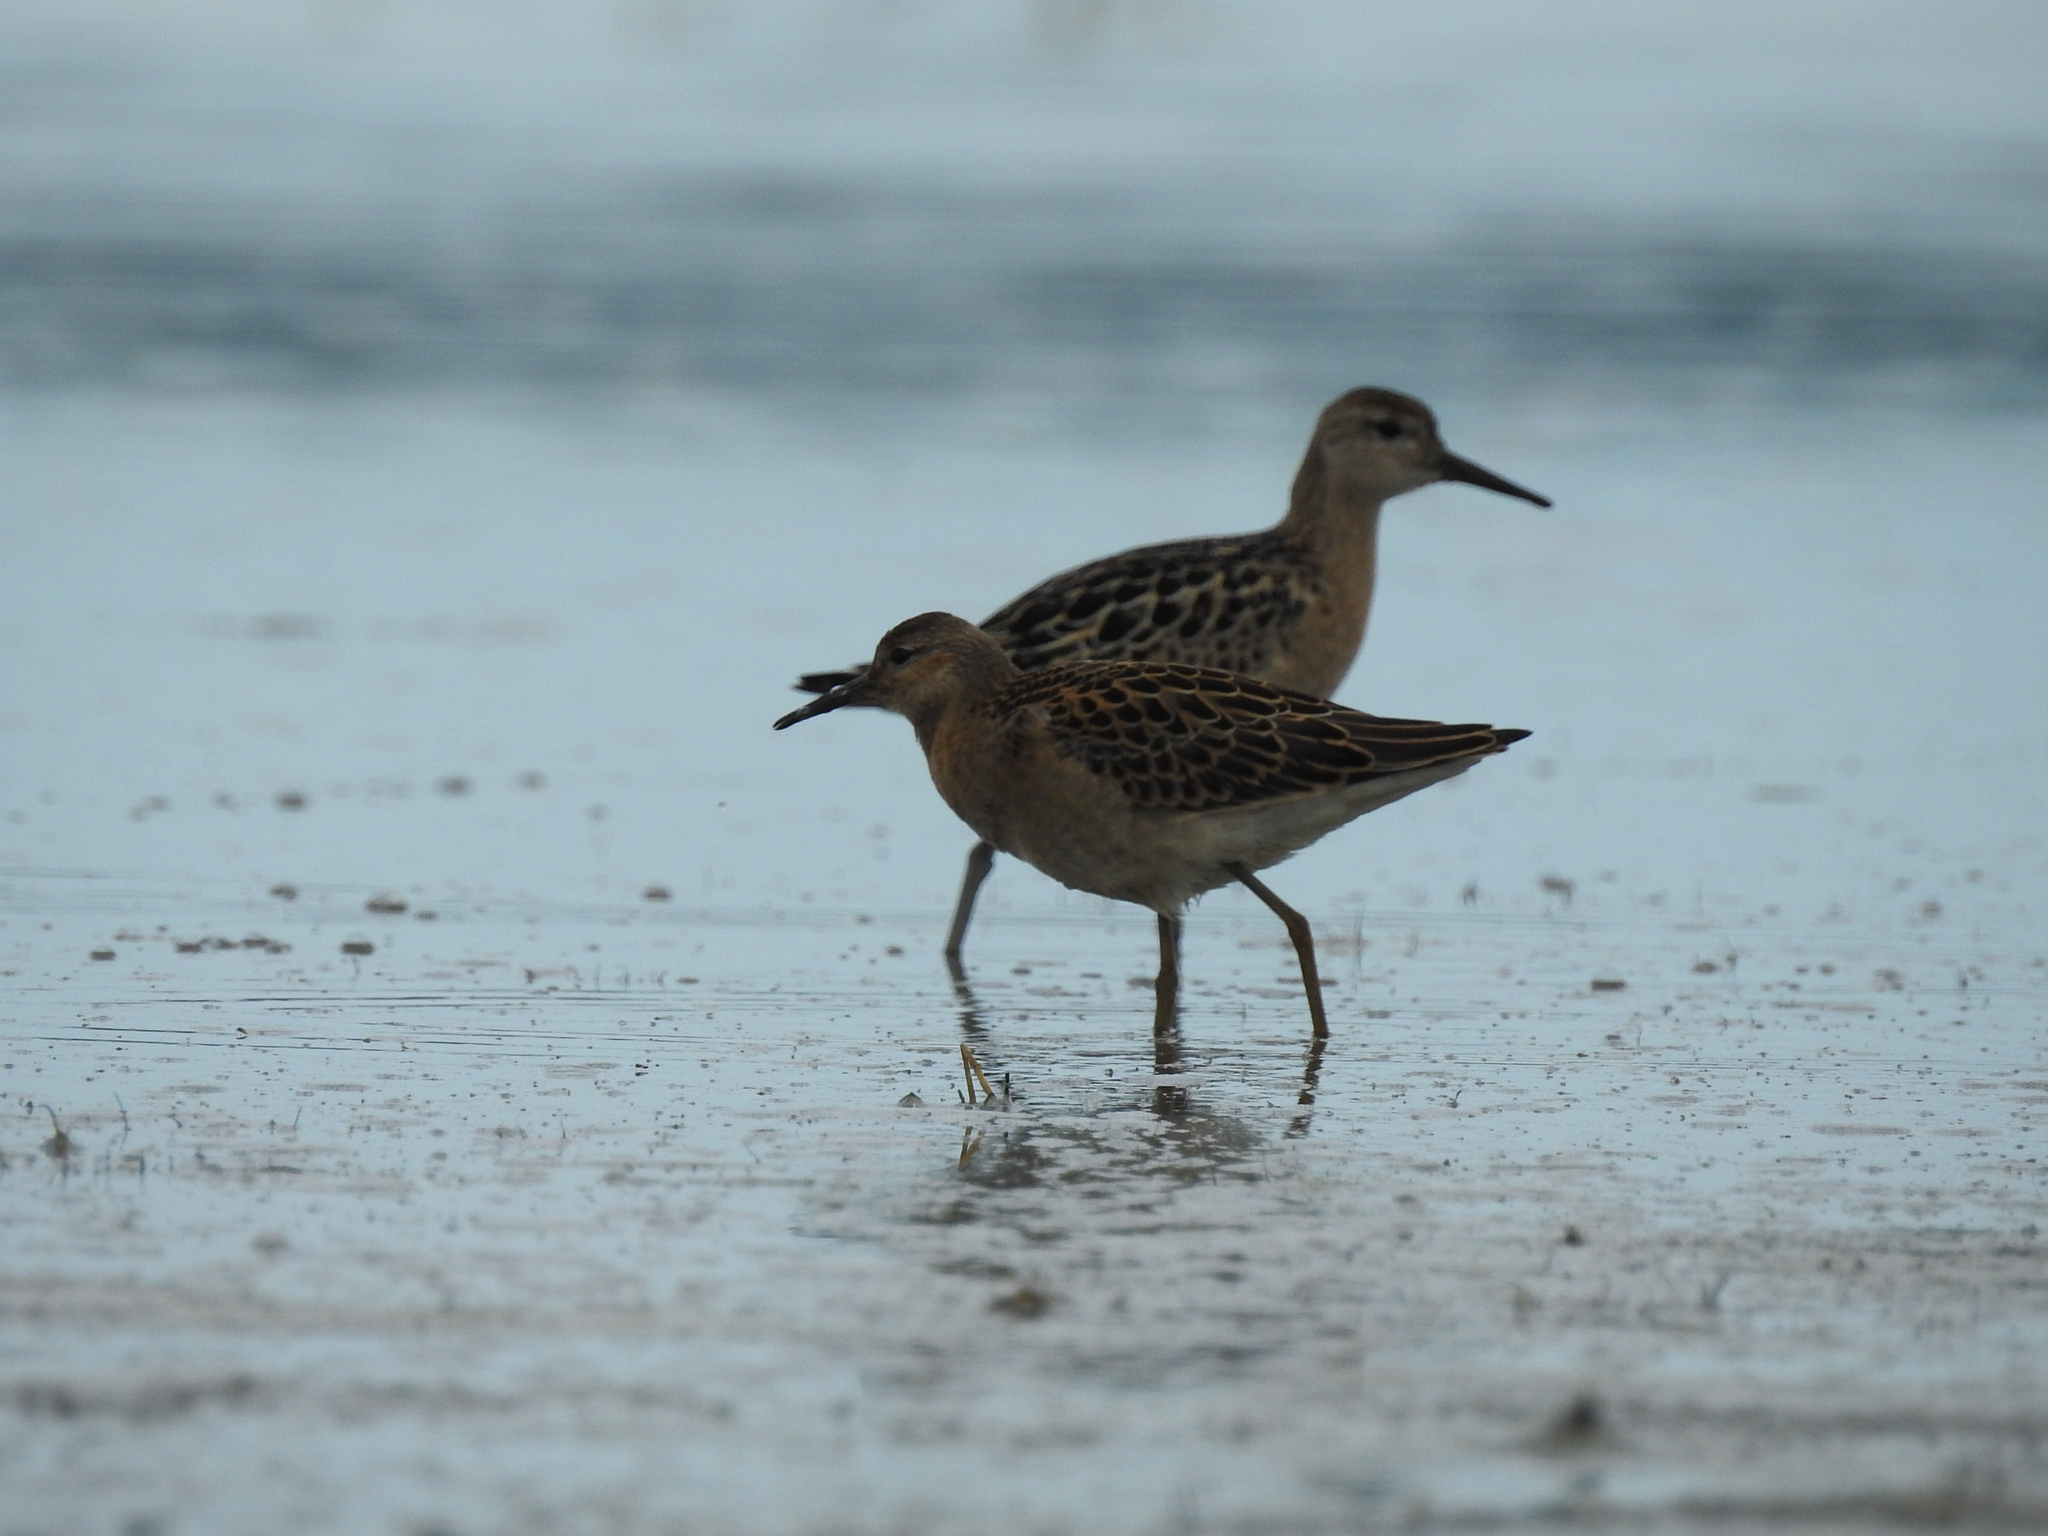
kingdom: Animalia
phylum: Chordata
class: Aves
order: Charadriiformes
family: Scolopacidae
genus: Calidris
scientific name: Calidris pugnax
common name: Ruff
